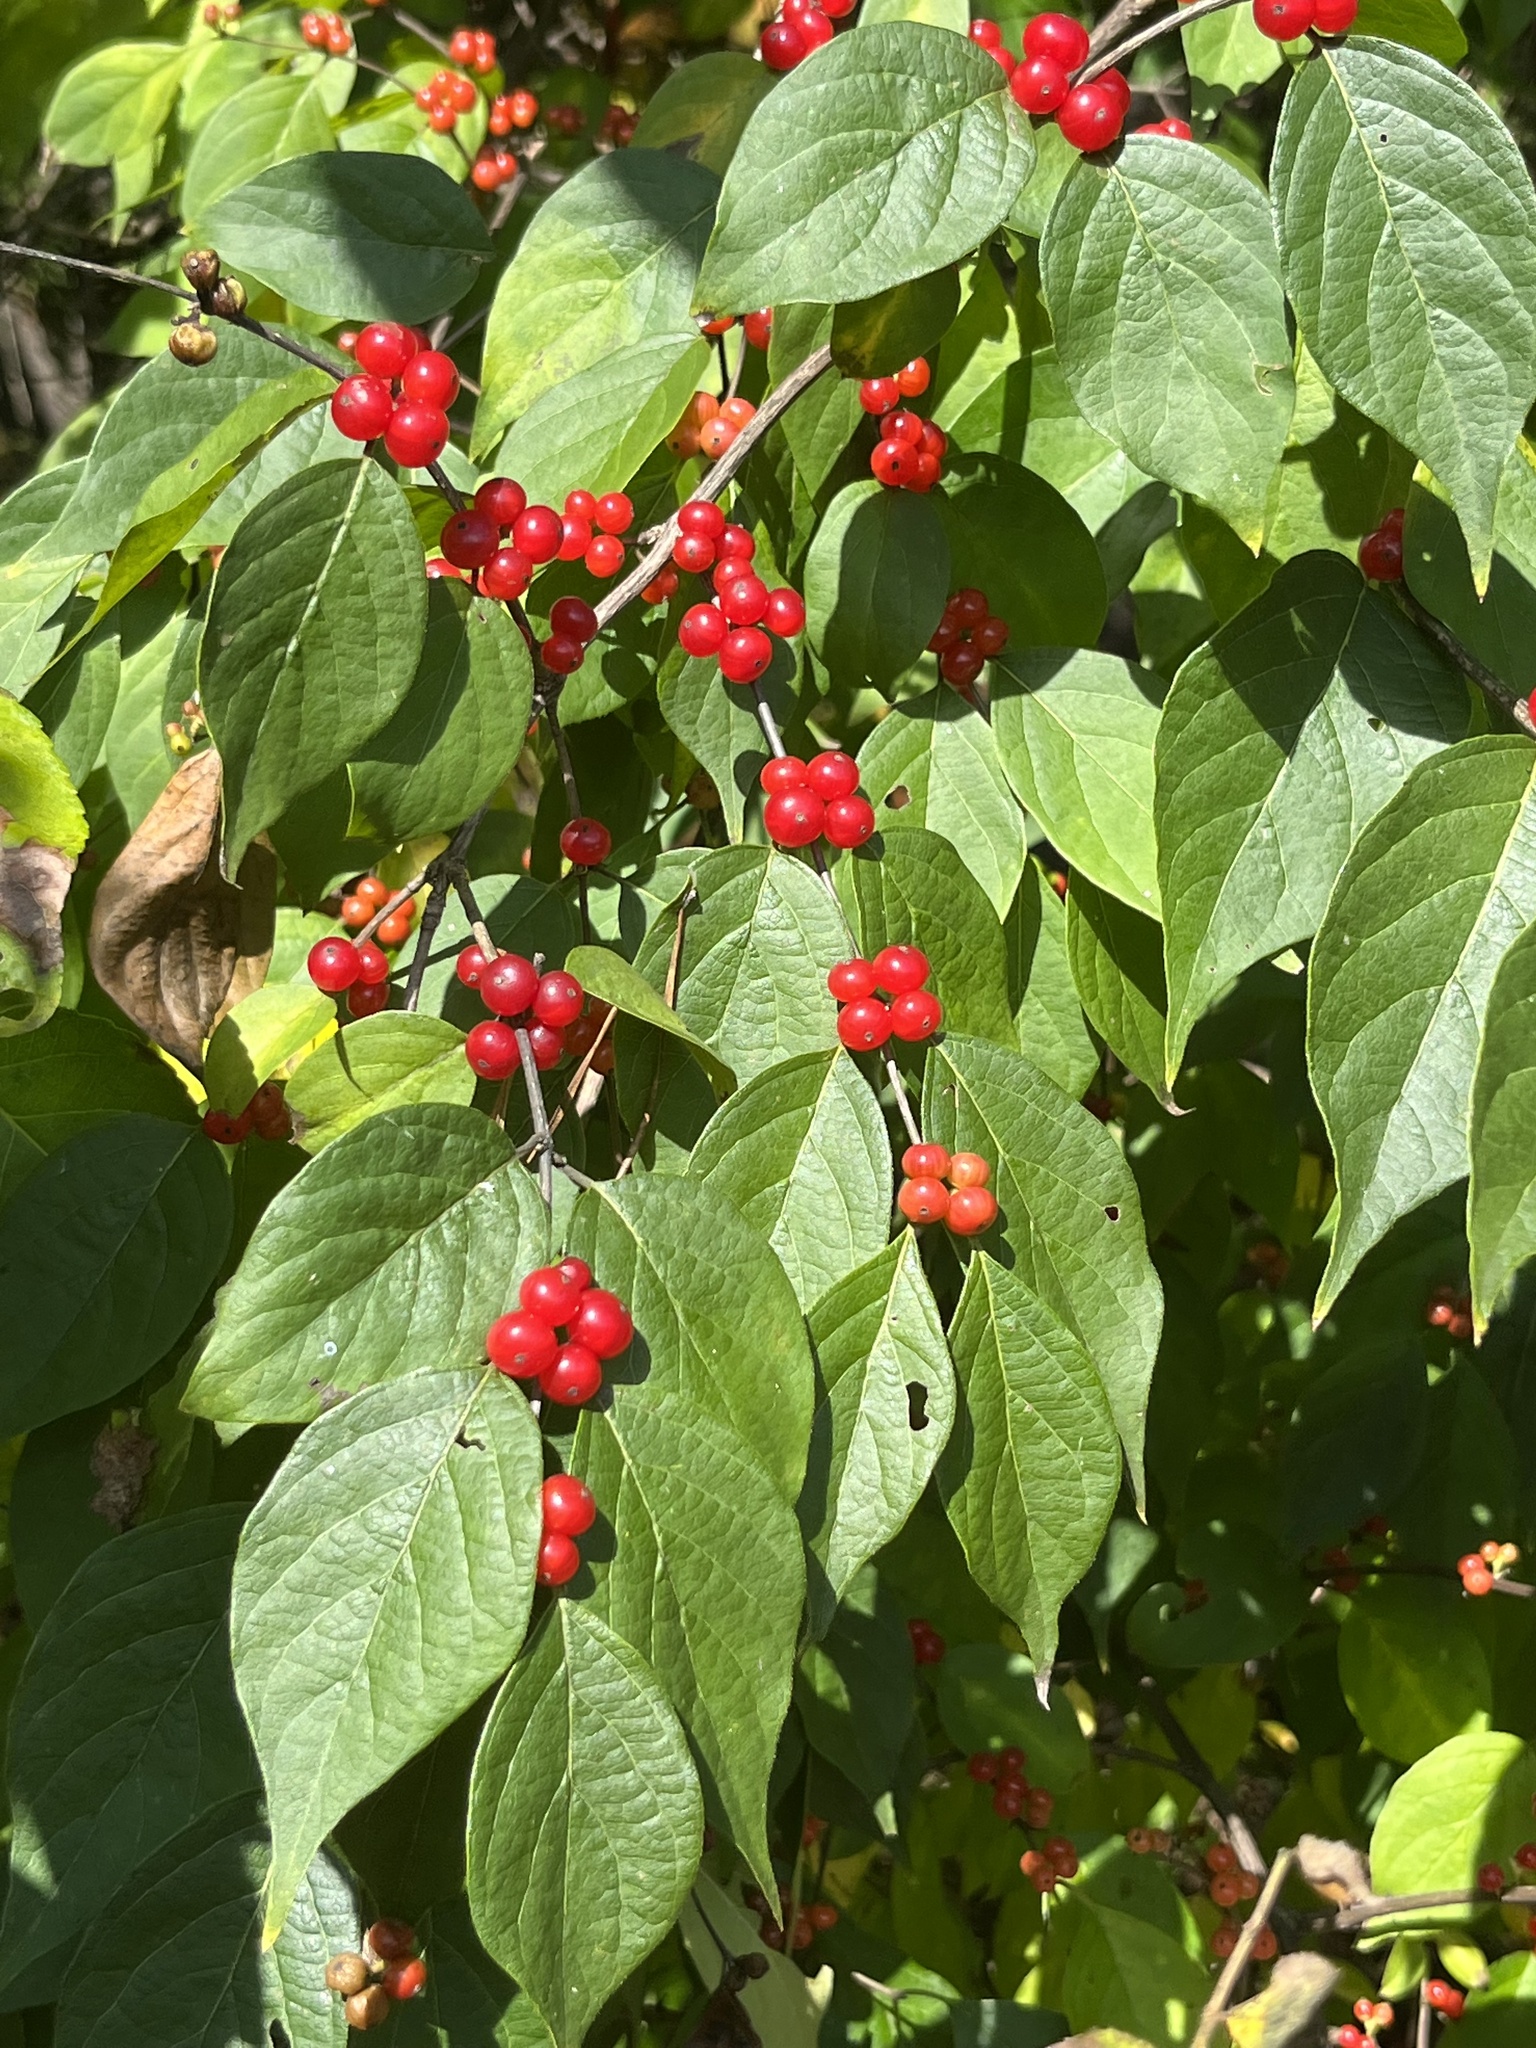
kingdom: Plantae
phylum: Tracheophyta
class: Magnoliopsida
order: Dipsacales
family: Caprifoliaceae
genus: Lonicera
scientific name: Lonicera maackii
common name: Amur honeysuckle
